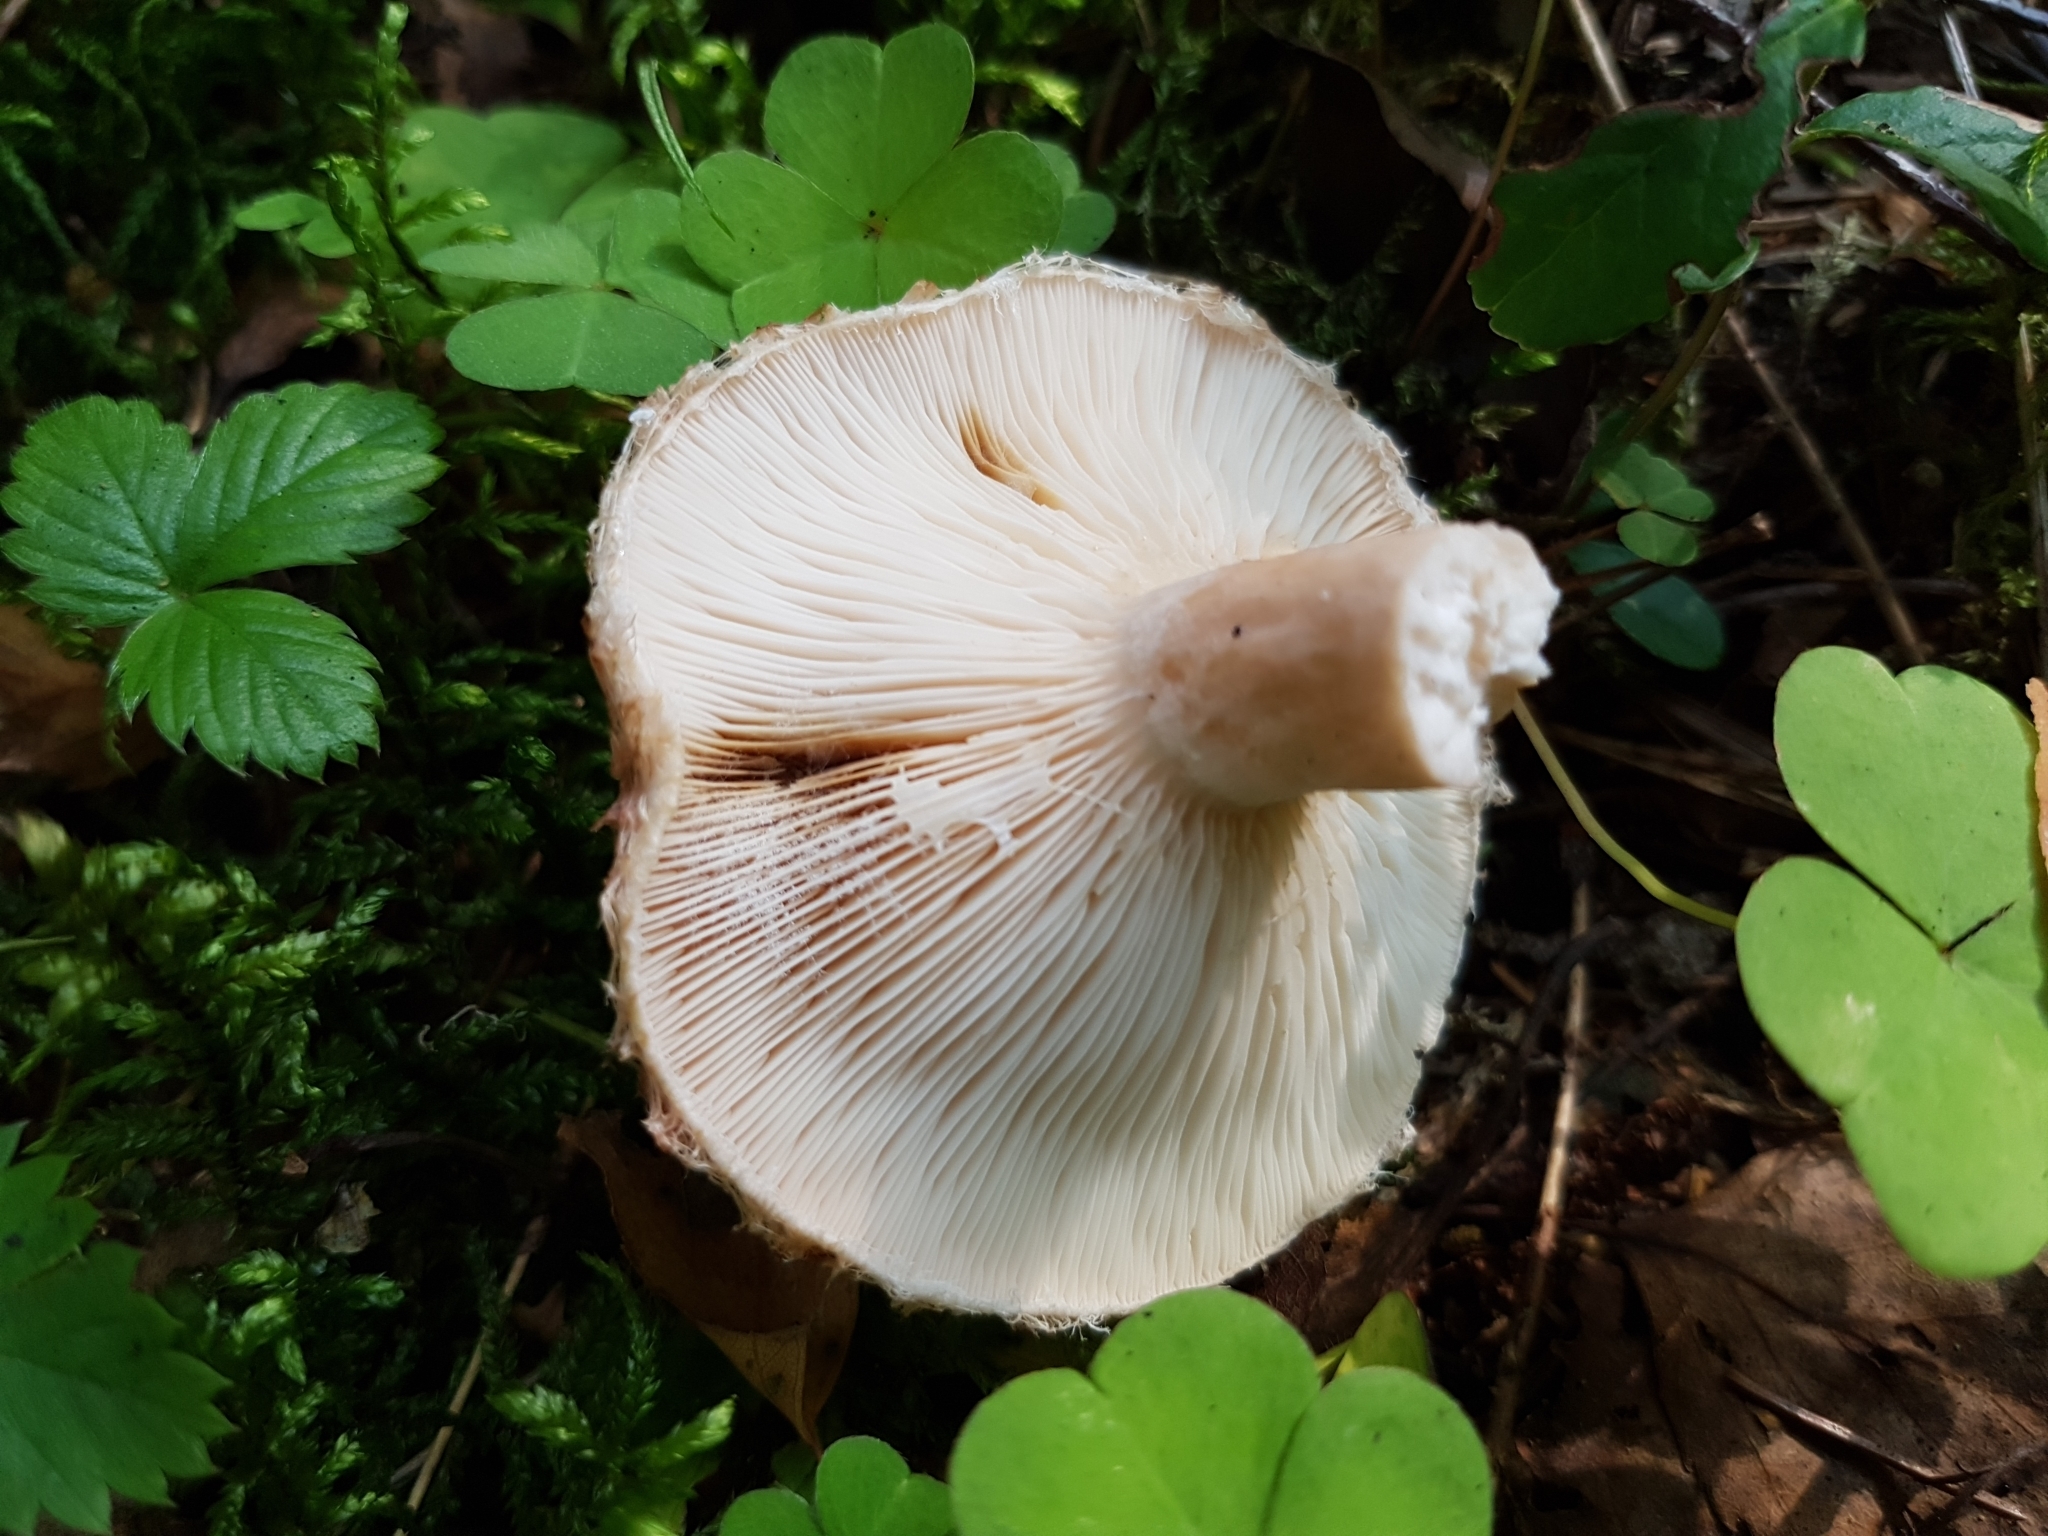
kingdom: Fungi
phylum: Basidiomycota
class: Agaricomycetes
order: Russulales
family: Russulaceae
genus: Lactarius
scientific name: Lactarius torminosus
